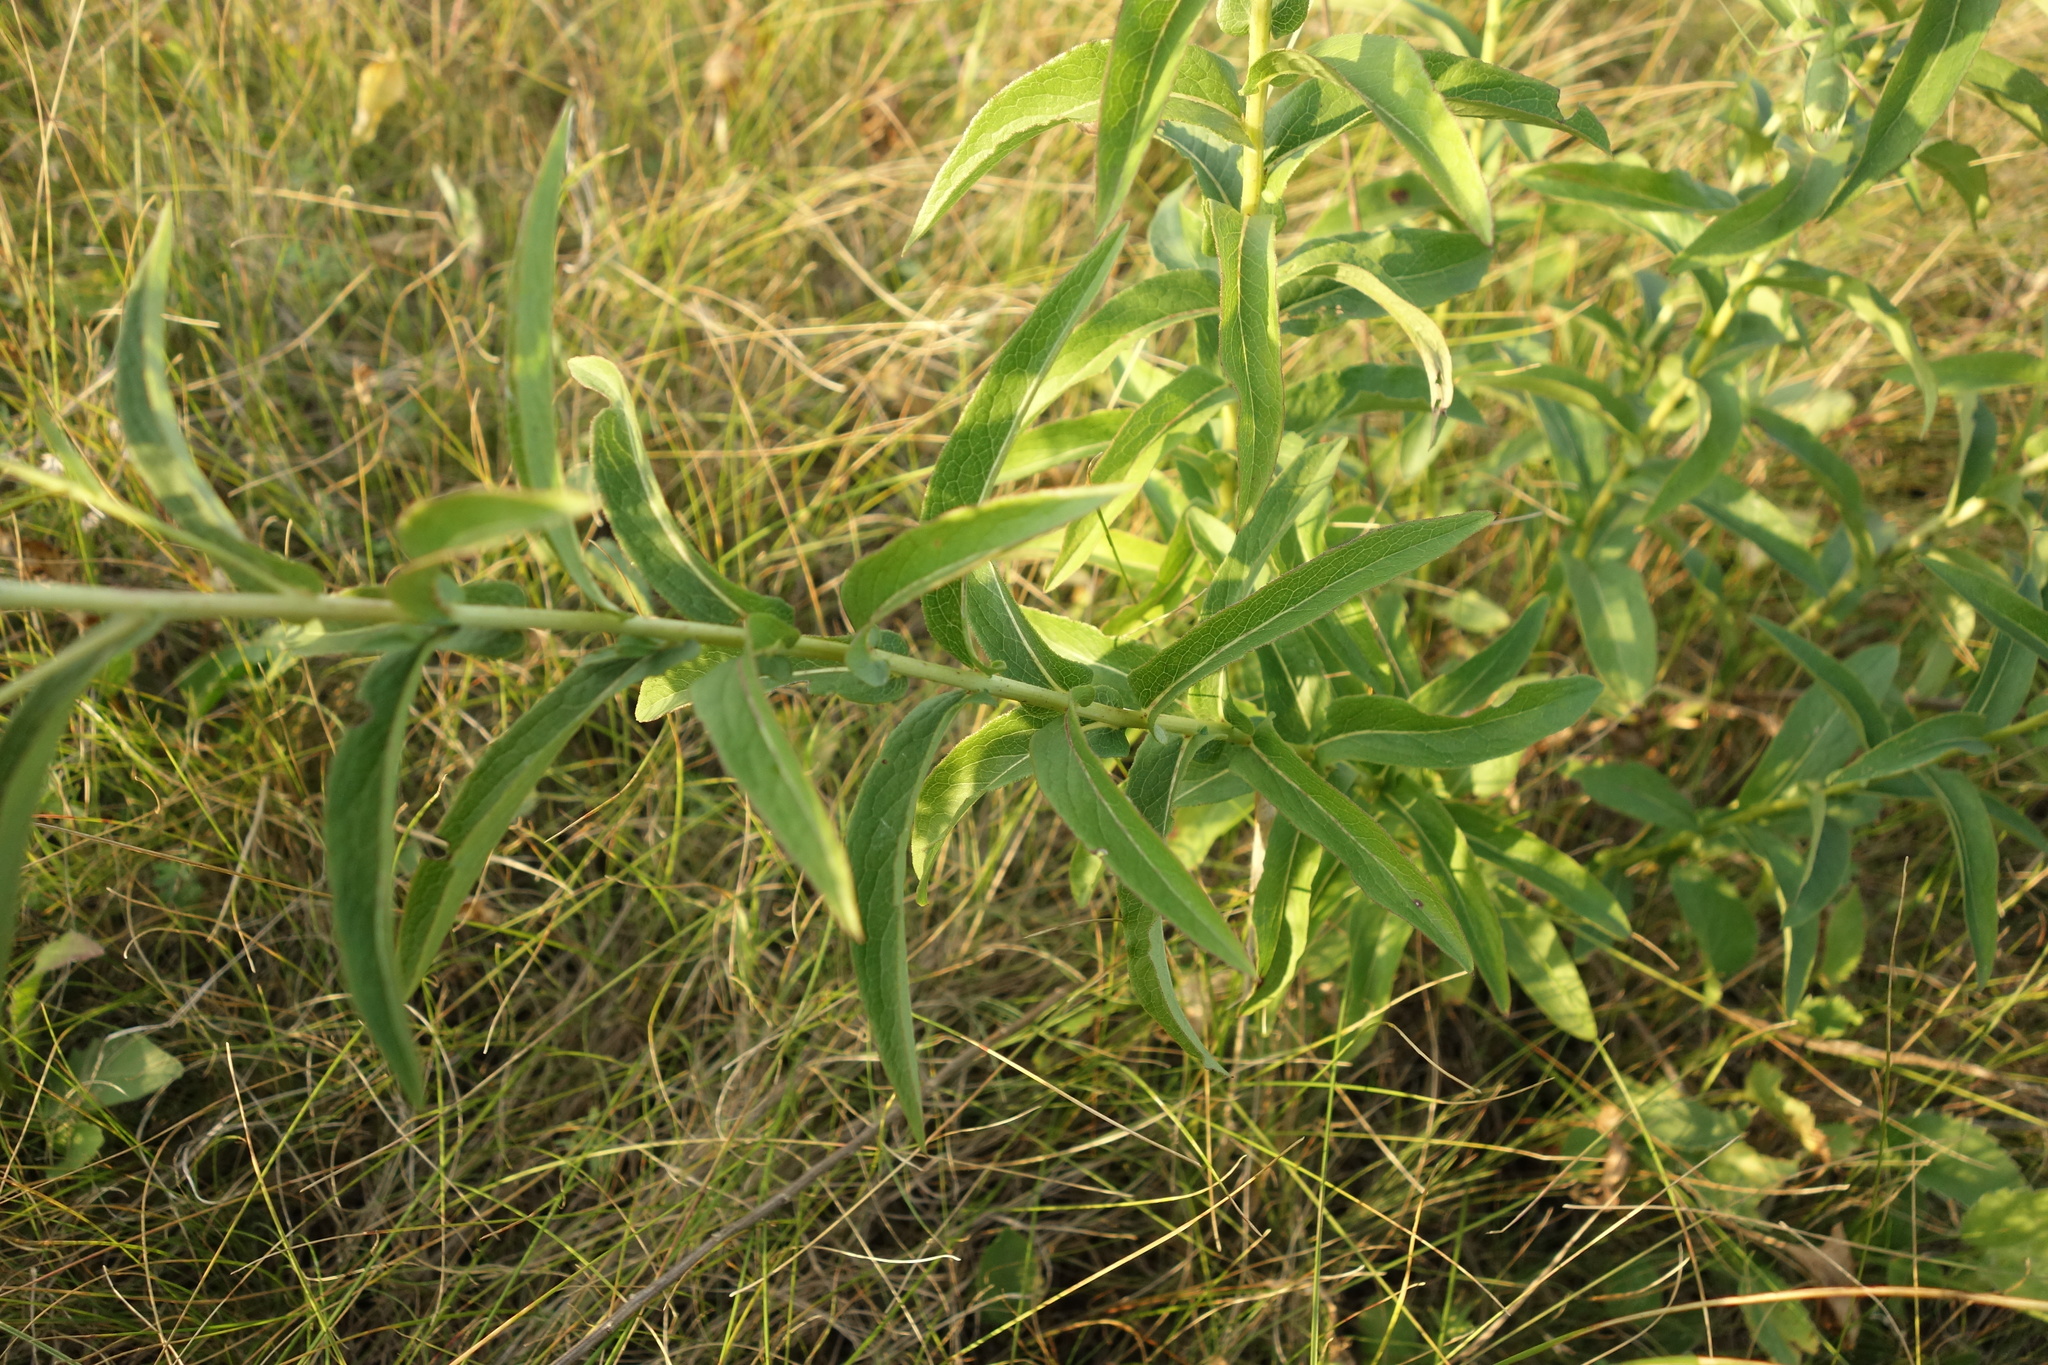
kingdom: Plantae
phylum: Tracheophyta
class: Magnoliopsida
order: Asterales
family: Asteraceae
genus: Pentanema
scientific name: Pentanema salicinum
